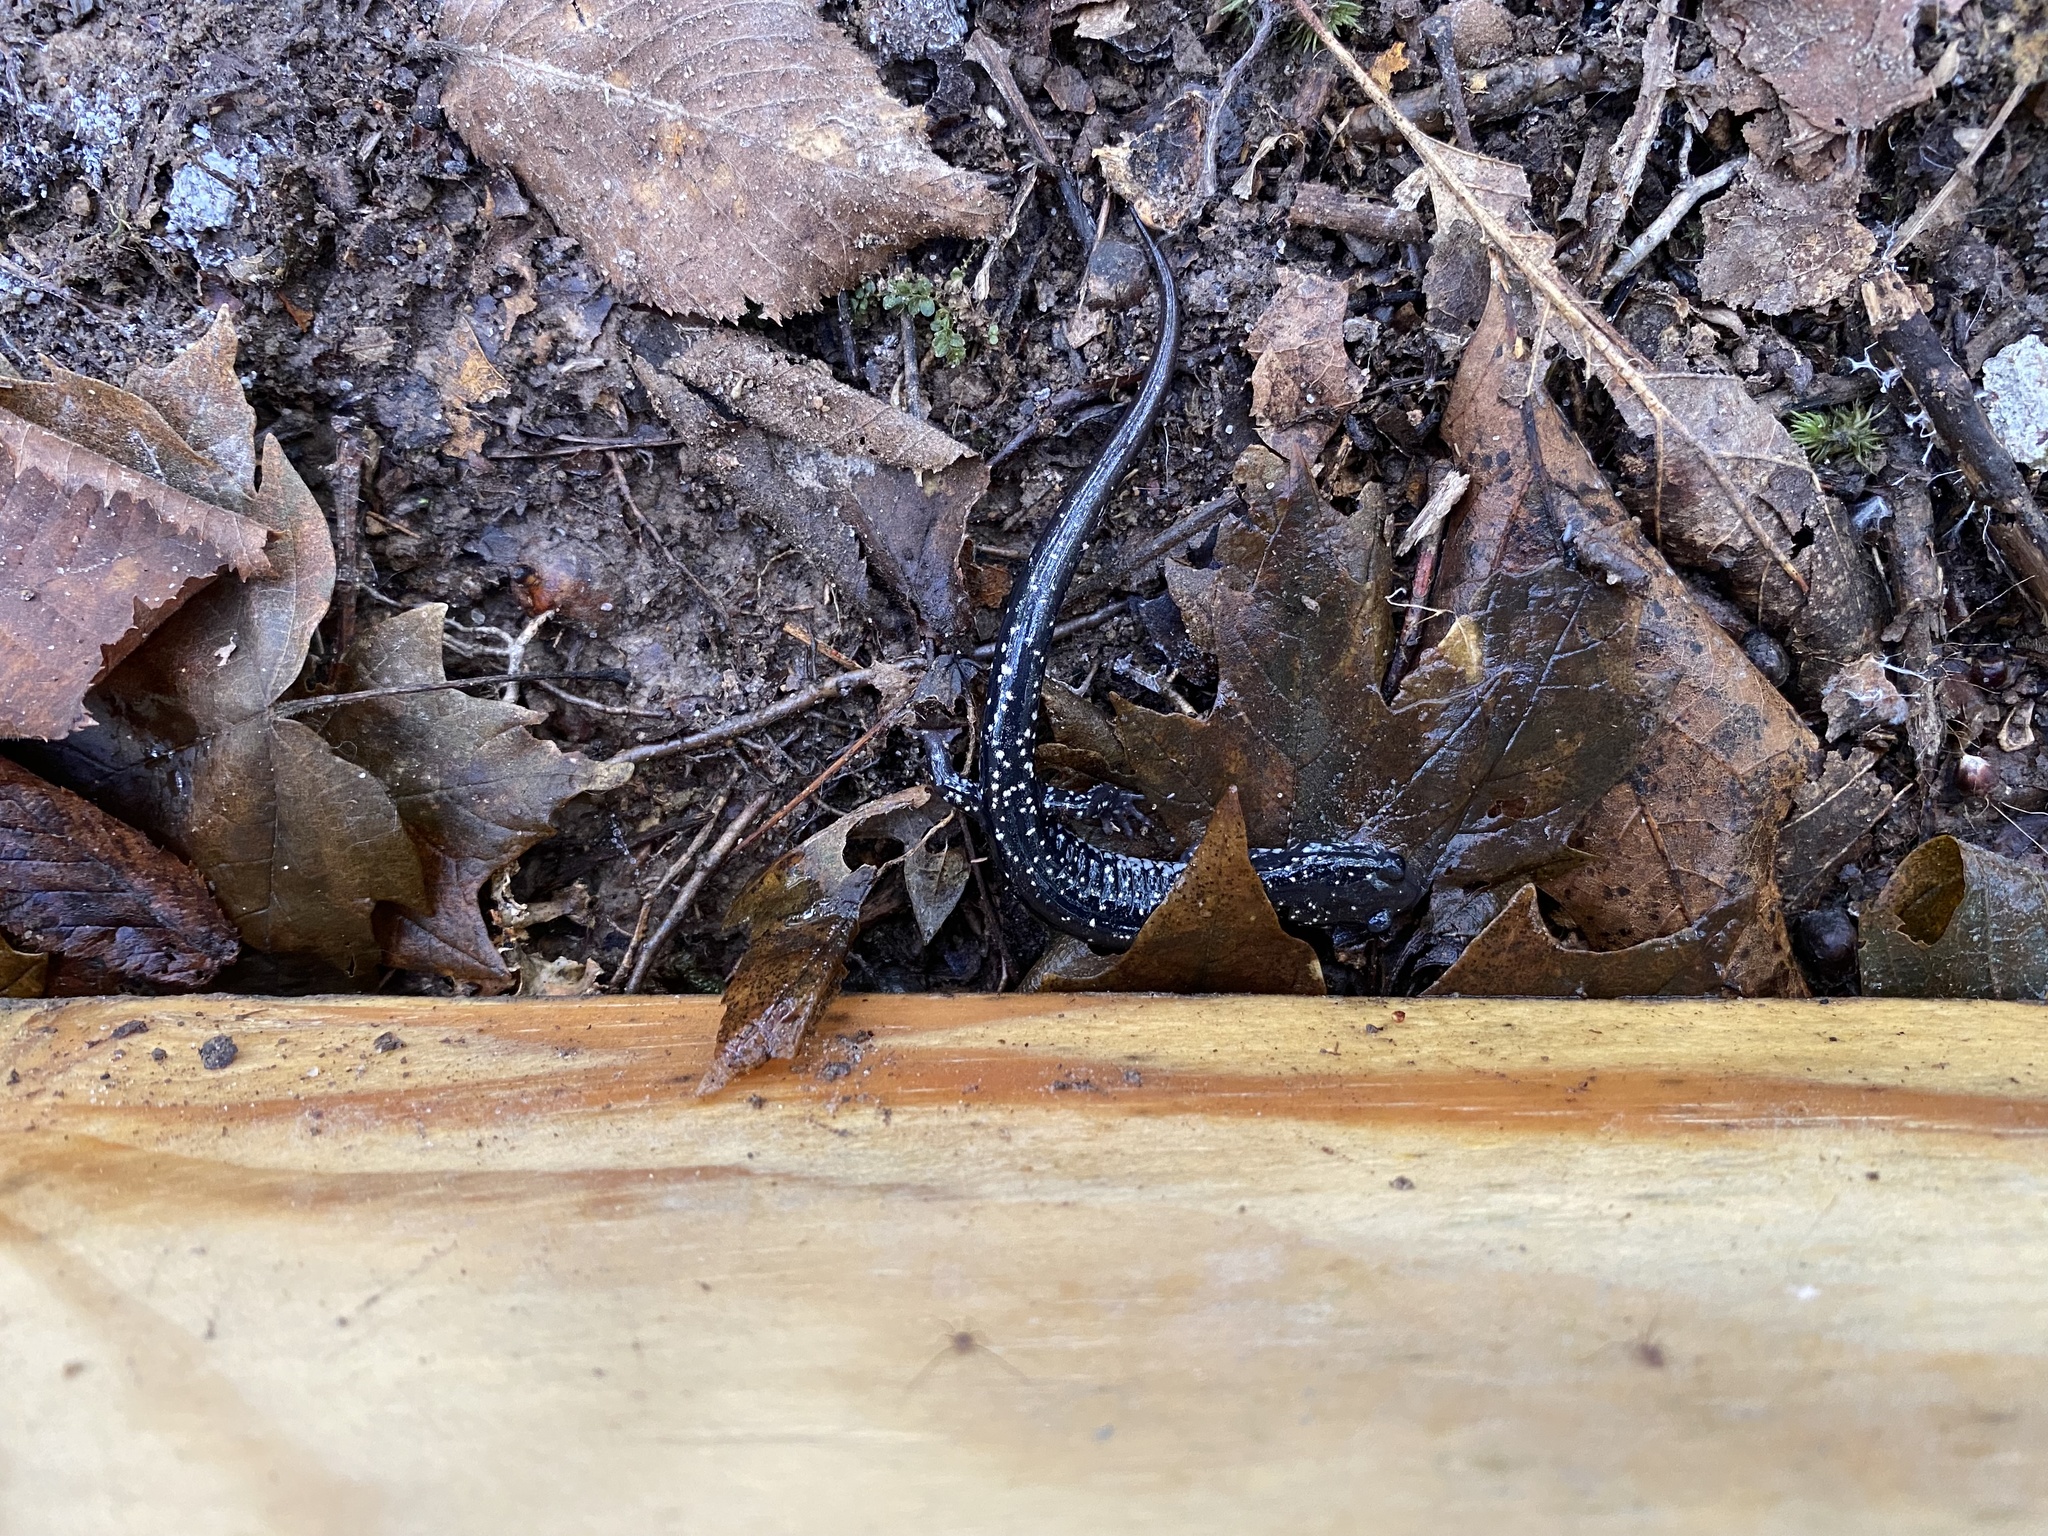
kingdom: Animalia
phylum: Chordata
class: Amphibia
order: Caudata
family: Plethodontidae
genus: Plethodon
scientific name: Plethodon glutinosus
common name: Northern slimy salamander
